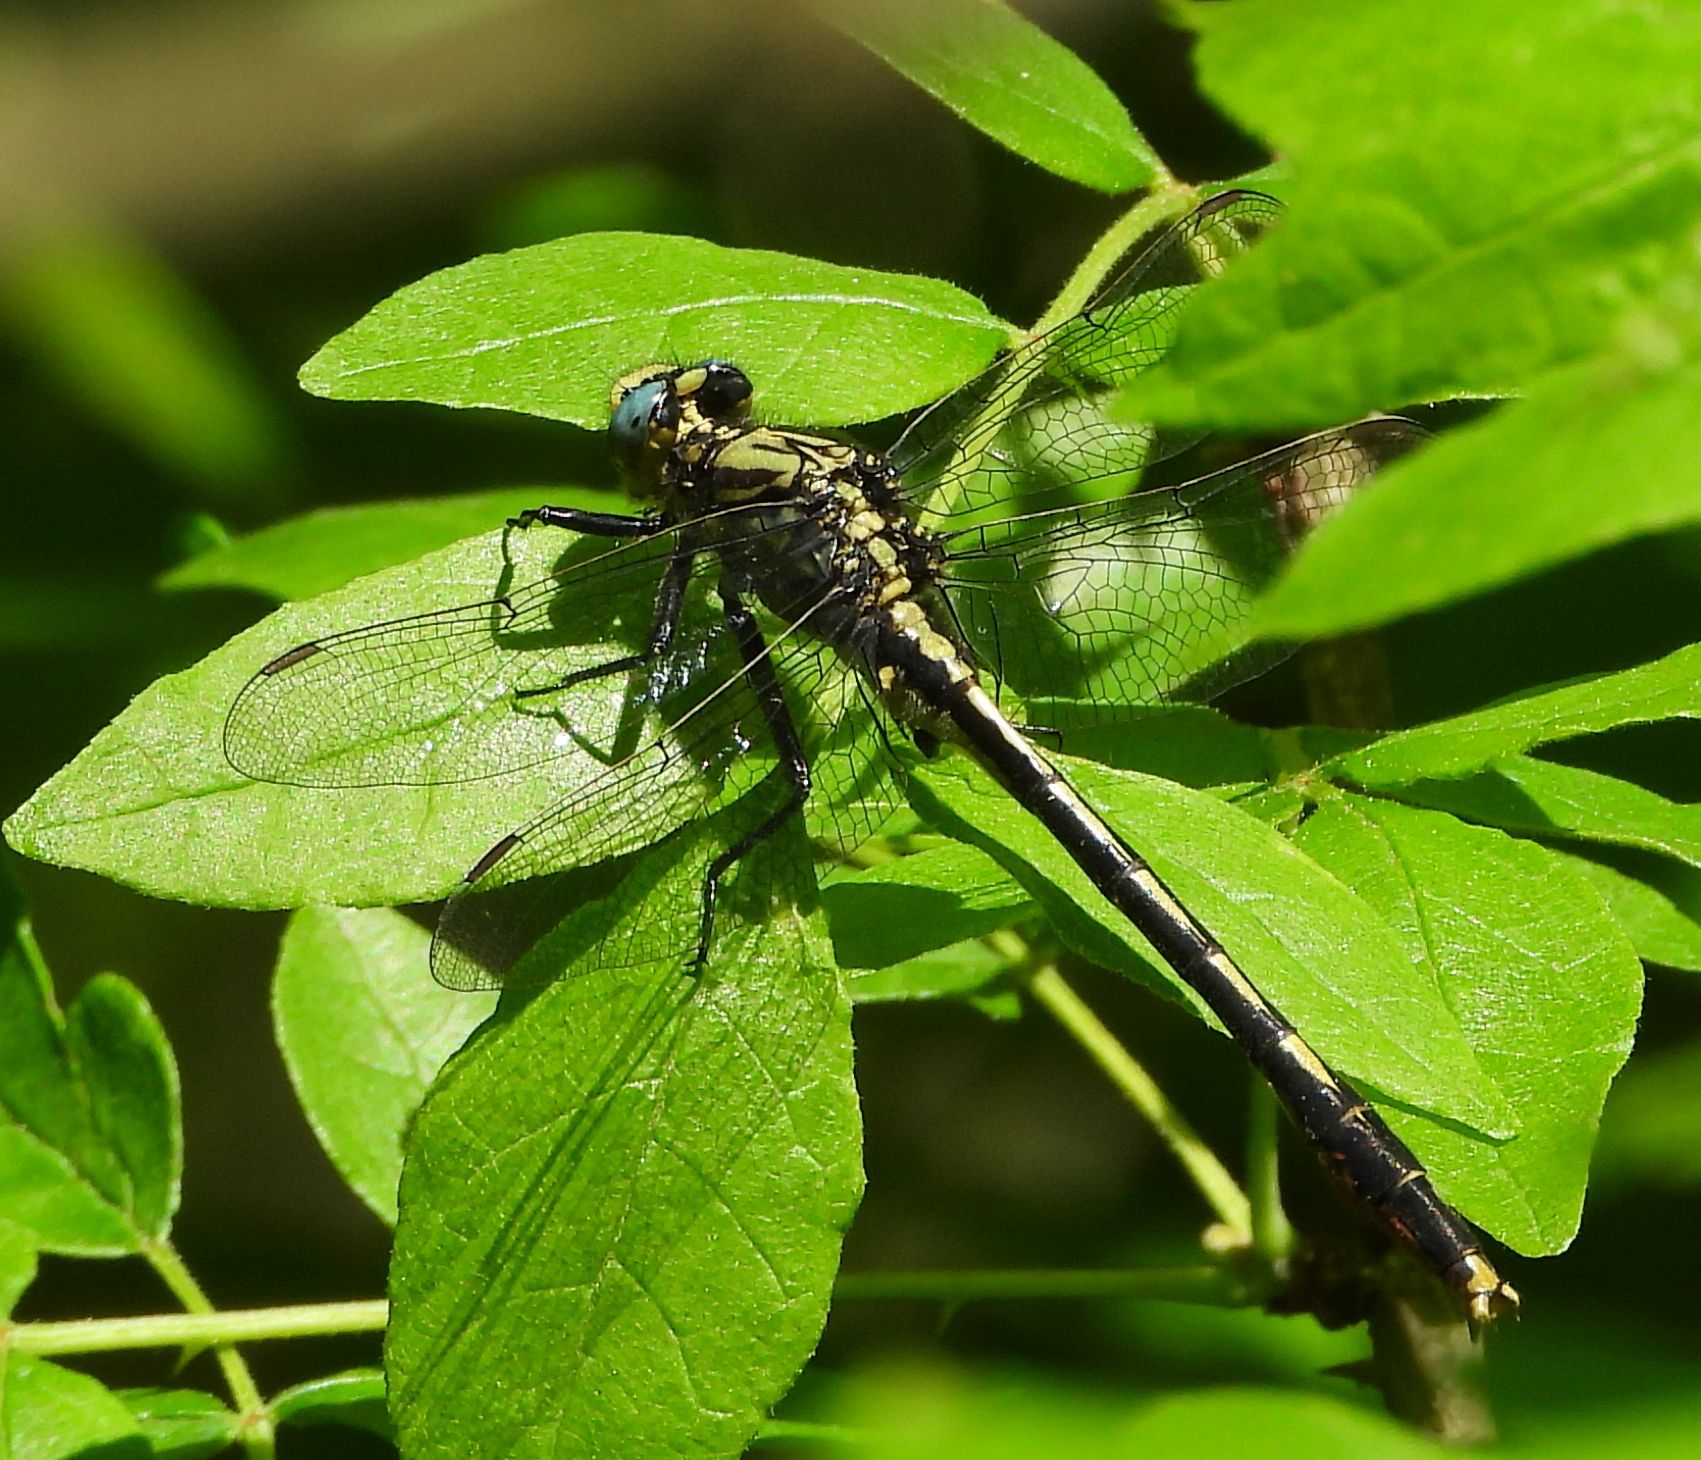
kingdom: Animalia
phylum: Arthropoda
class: Insecta
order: Odonata
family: Gomphidae
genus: Arigomphus
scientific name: Arigomphus furcifer
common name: Lilypad clubtail
